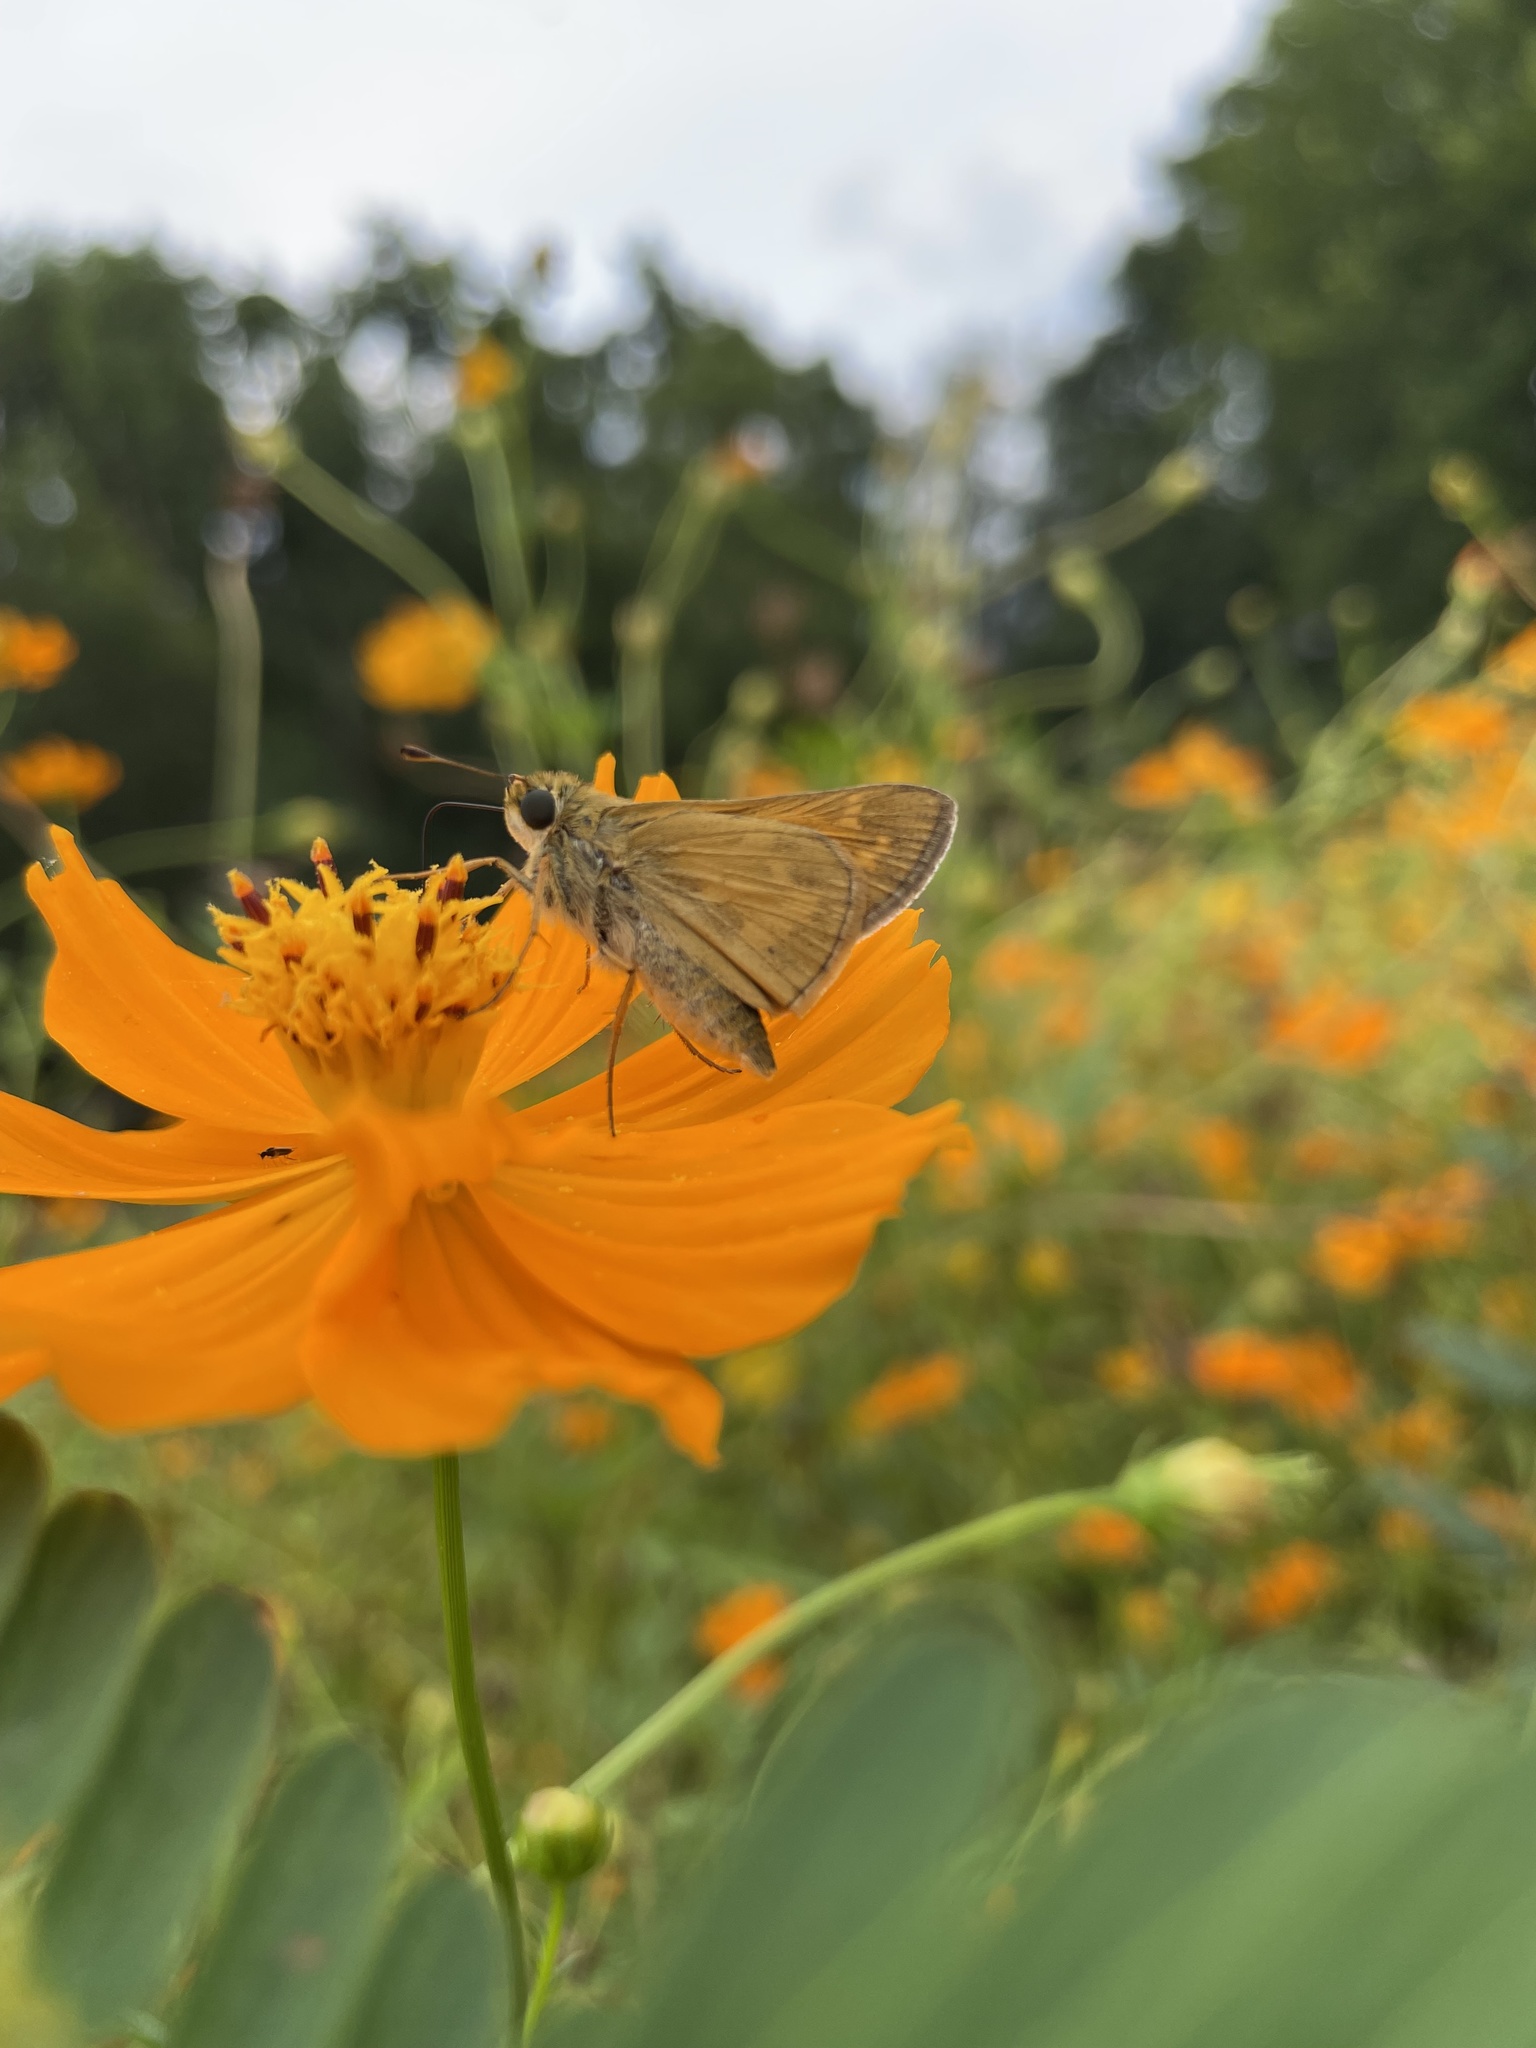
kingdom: Animalia
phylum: Arthropoda
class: Insecta
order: Lepidoptera
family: Hesperiidae
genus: Atalopedes
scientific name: Atalopedes
